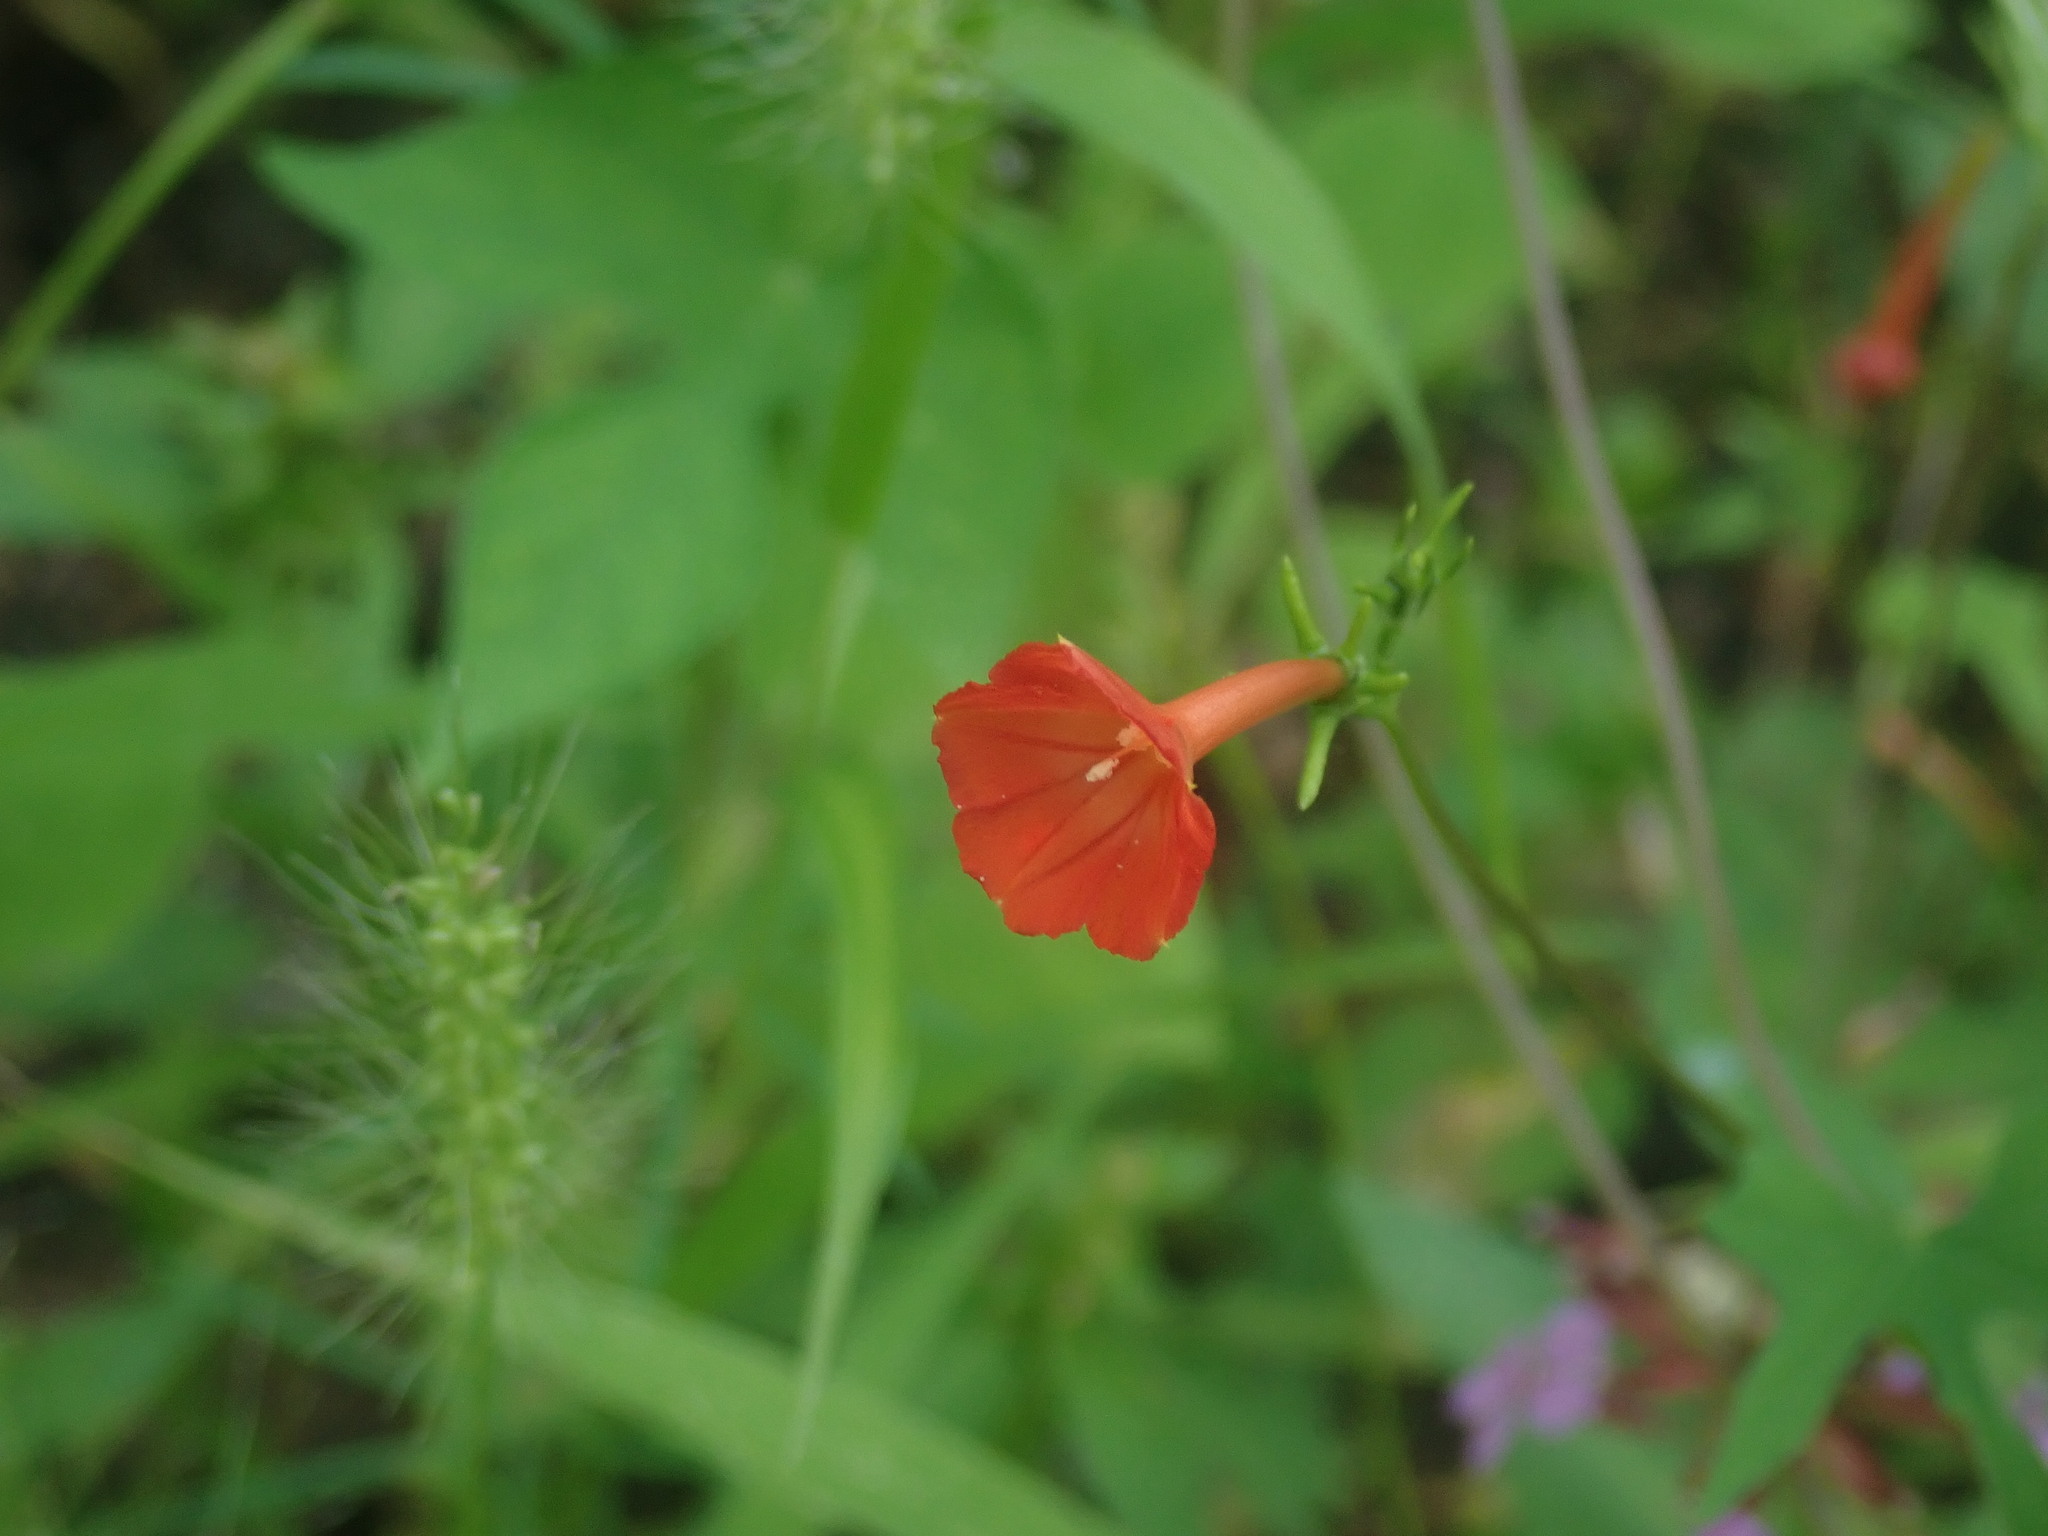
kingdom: Plantae
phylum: Tracheophyta
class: Magnoliopsida
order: Solanales
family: Convolvulaceae
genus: Ipomoea
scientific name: Ipomoea cristulata
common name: Trans-pecos morning-glory
